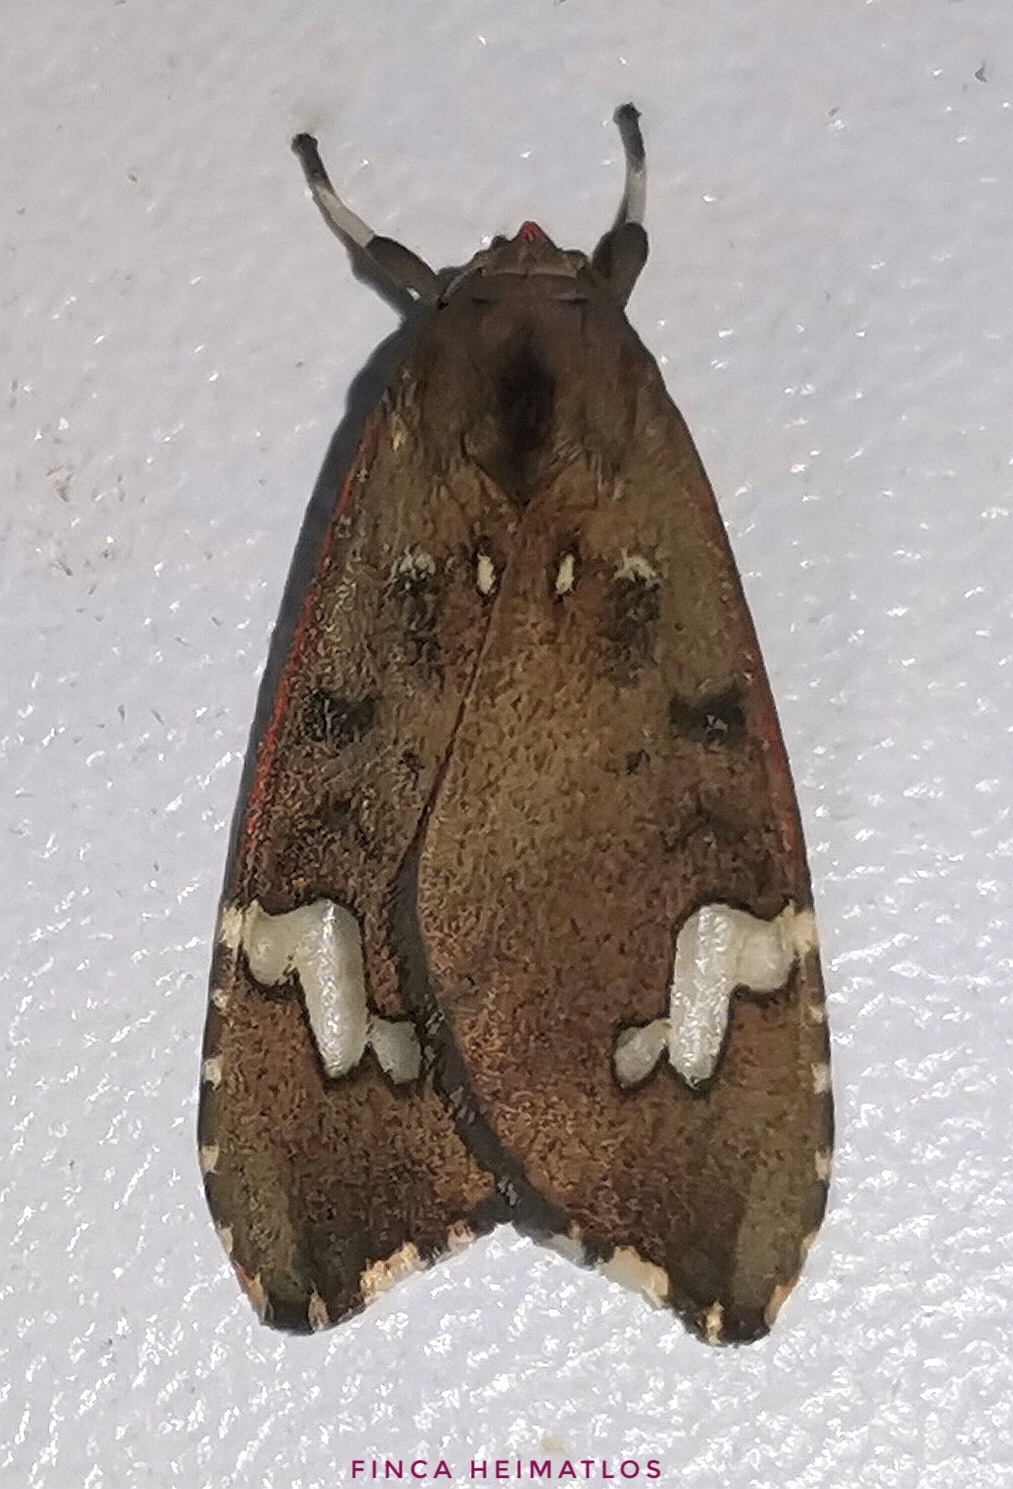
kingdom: Animalia
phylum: Arthropoda
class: Insecta
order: Lepidoptera
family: Erebidae
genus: Melese
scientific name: Melese babosa
